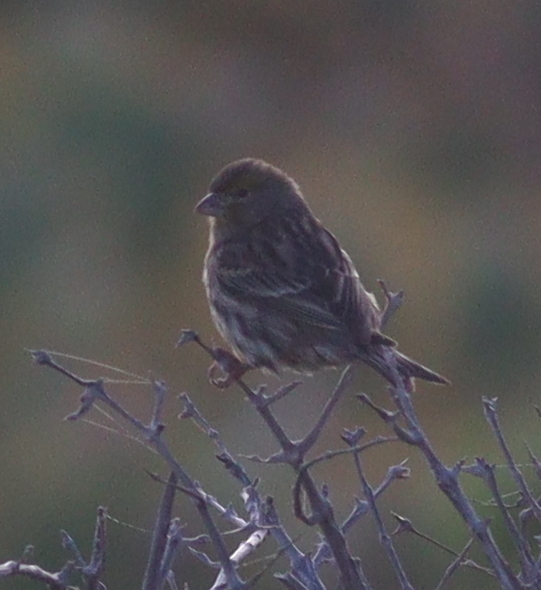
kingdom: Animalia
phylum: Chordata
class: Aves
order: Passeriformes
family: Fringillidae
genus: Serinus
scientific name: Serinus canaria
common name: Atlantic canary
